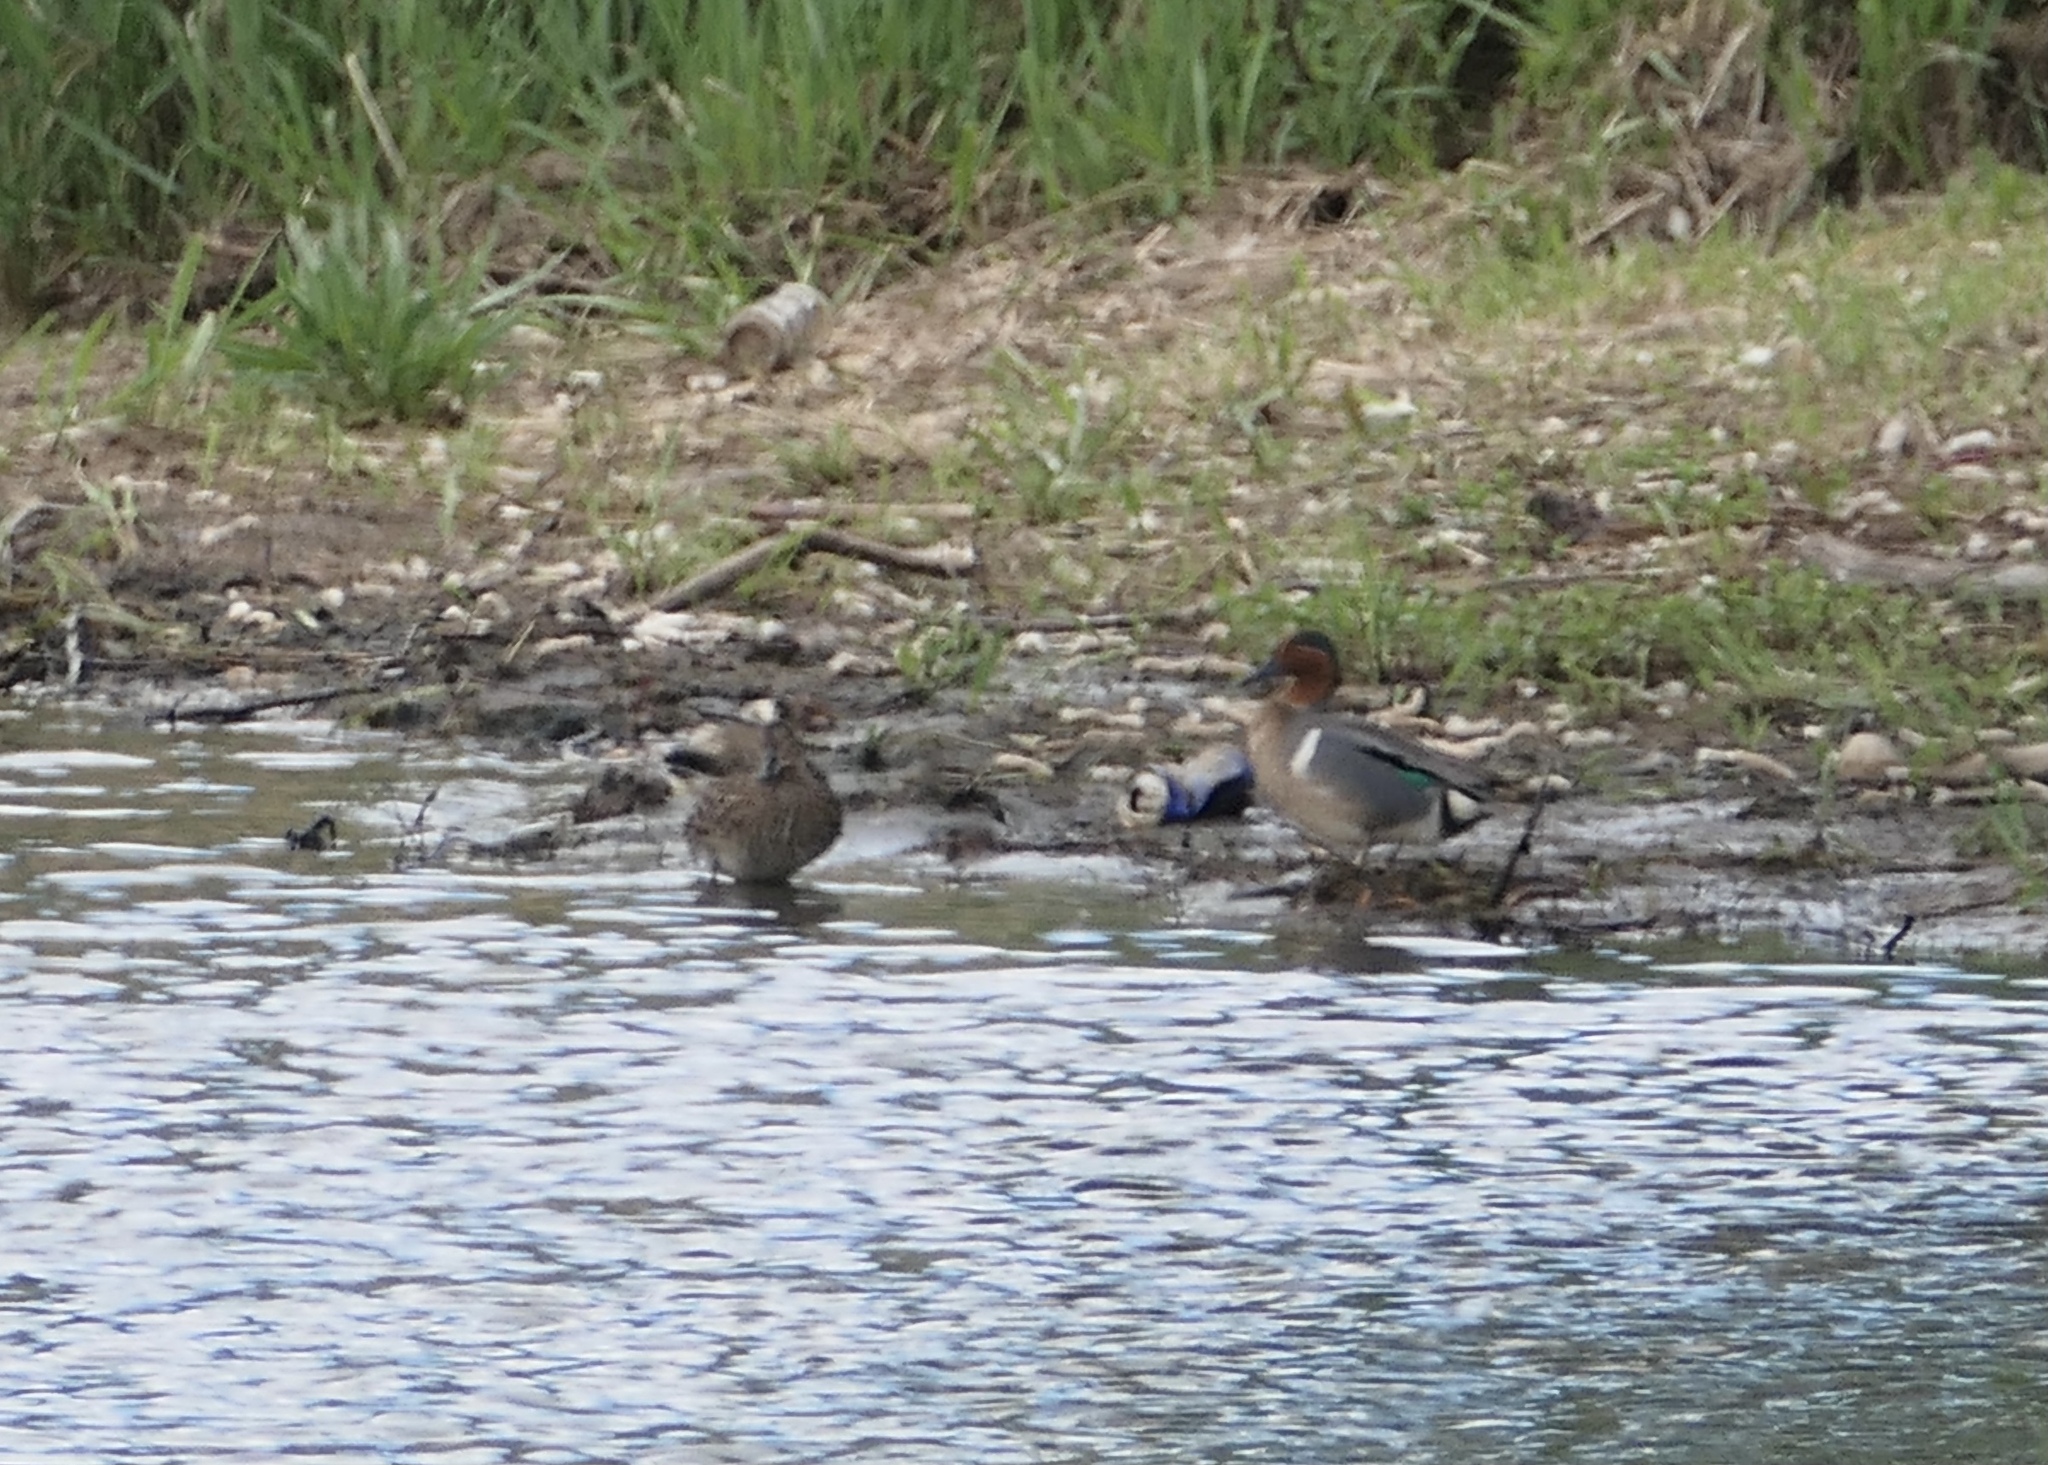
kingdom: Animalia
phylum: Chordata
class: Aves
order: Anseriformes
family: Anatidae
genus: Anas
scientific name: Anas crecca
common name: Eurasian teal
